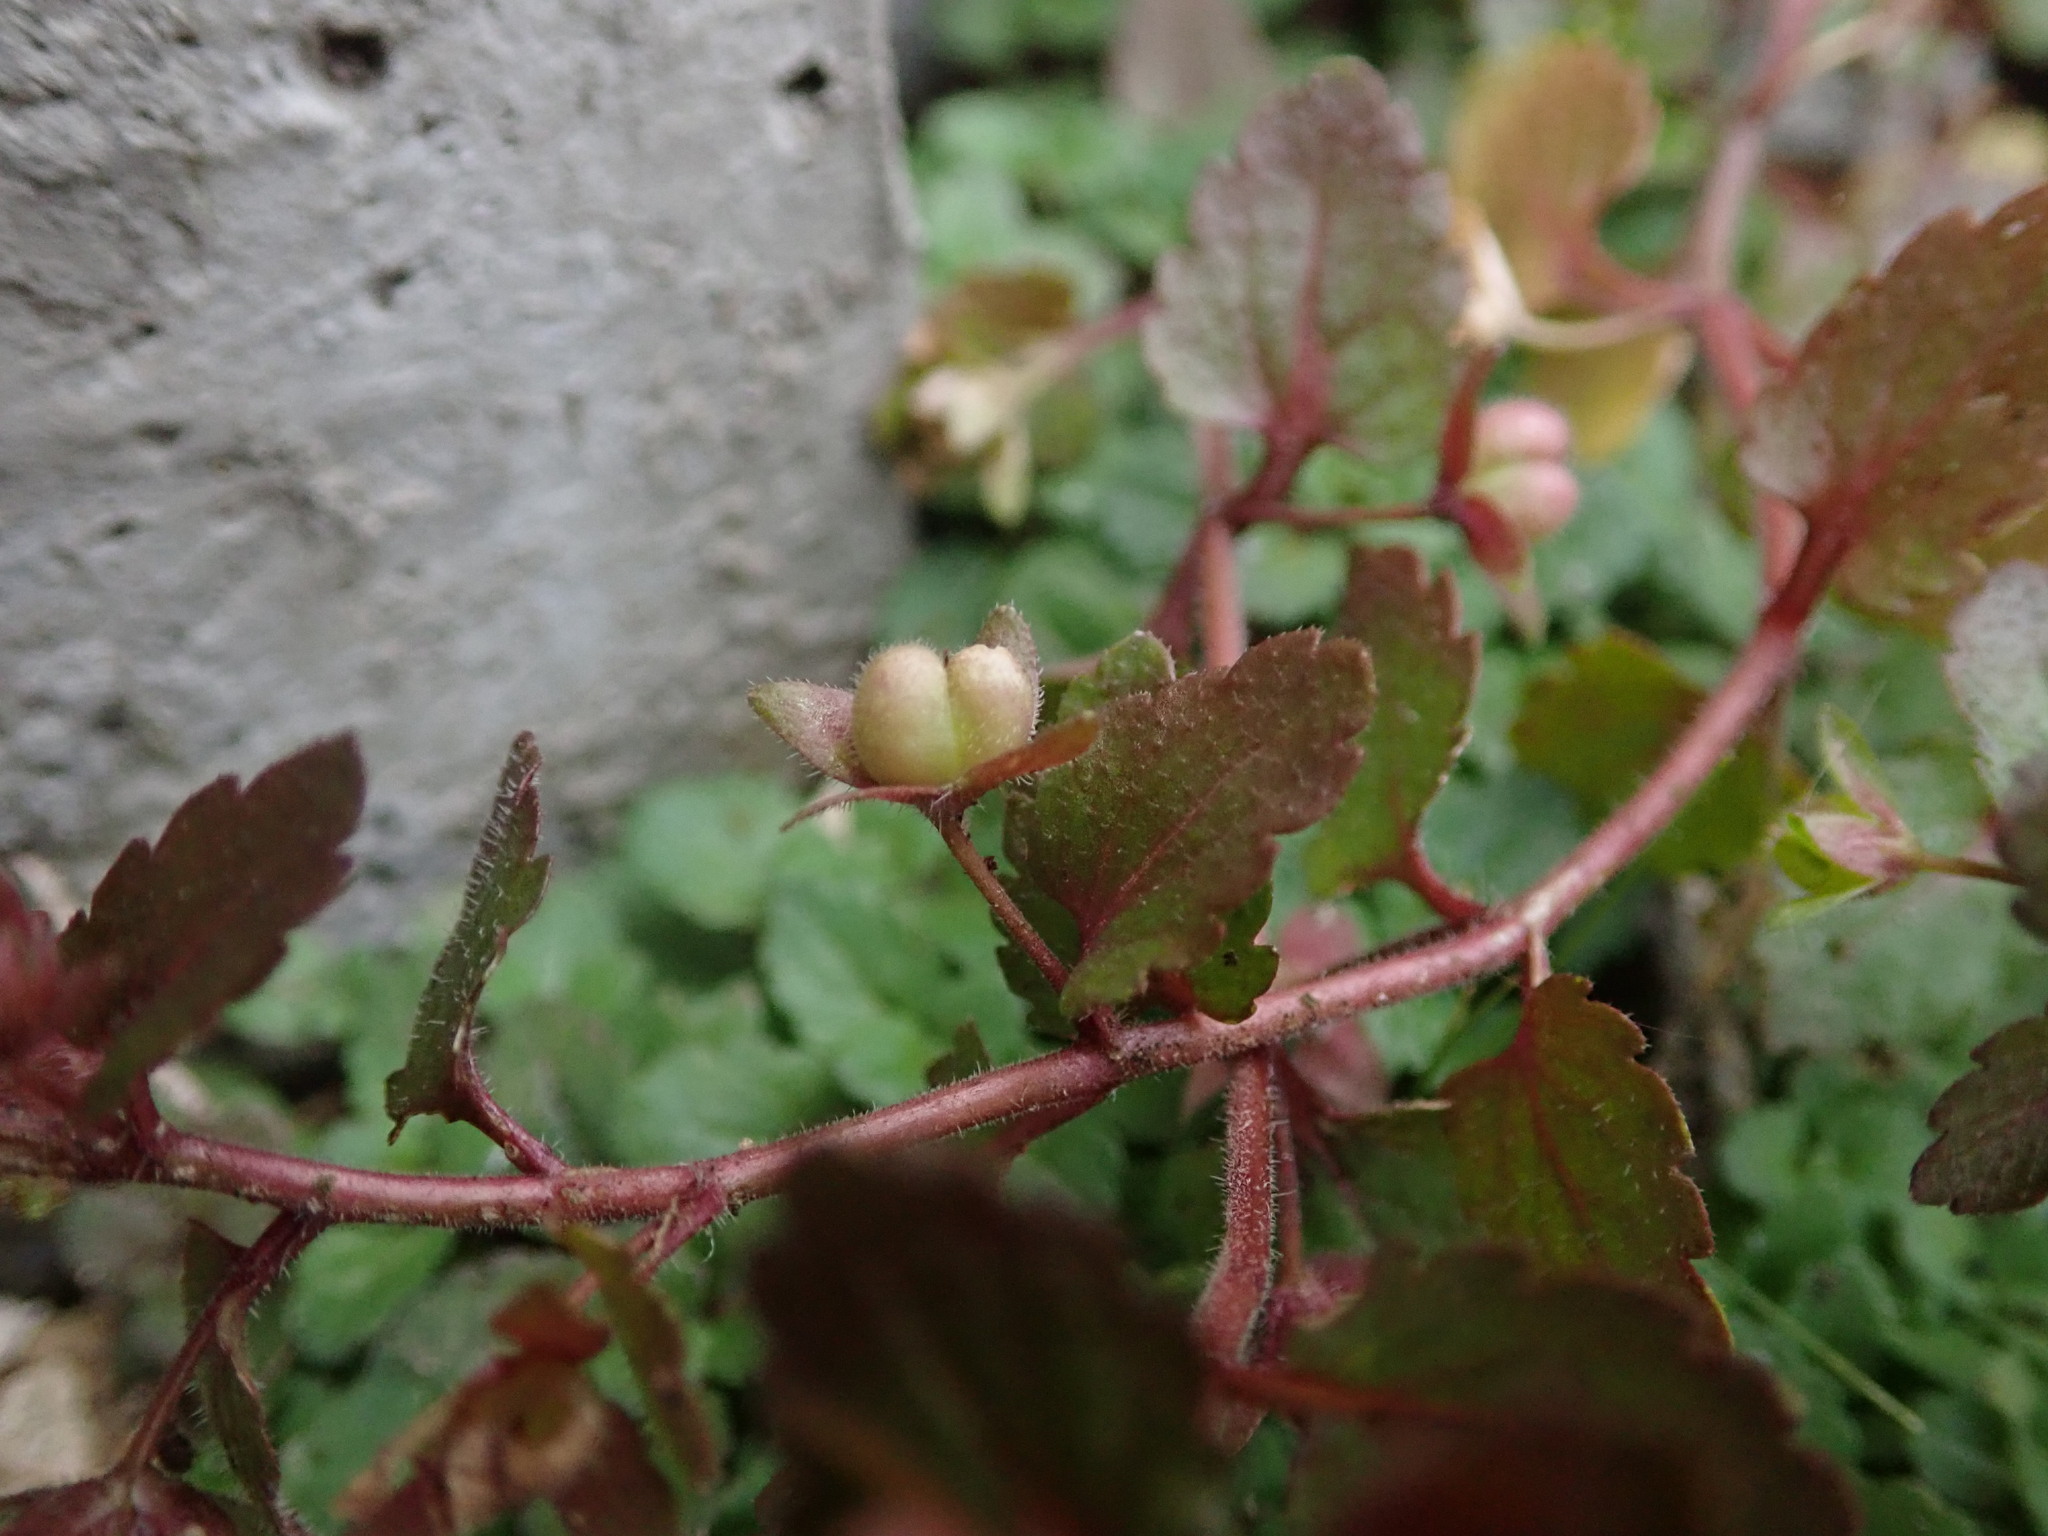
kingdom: Plantae
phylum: Tracheophyta
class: Magnoliopsida
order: Lamiales
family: Plantaginaceae
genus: Veronica
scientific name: Veronica agrestis
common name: Green field-speedwell
